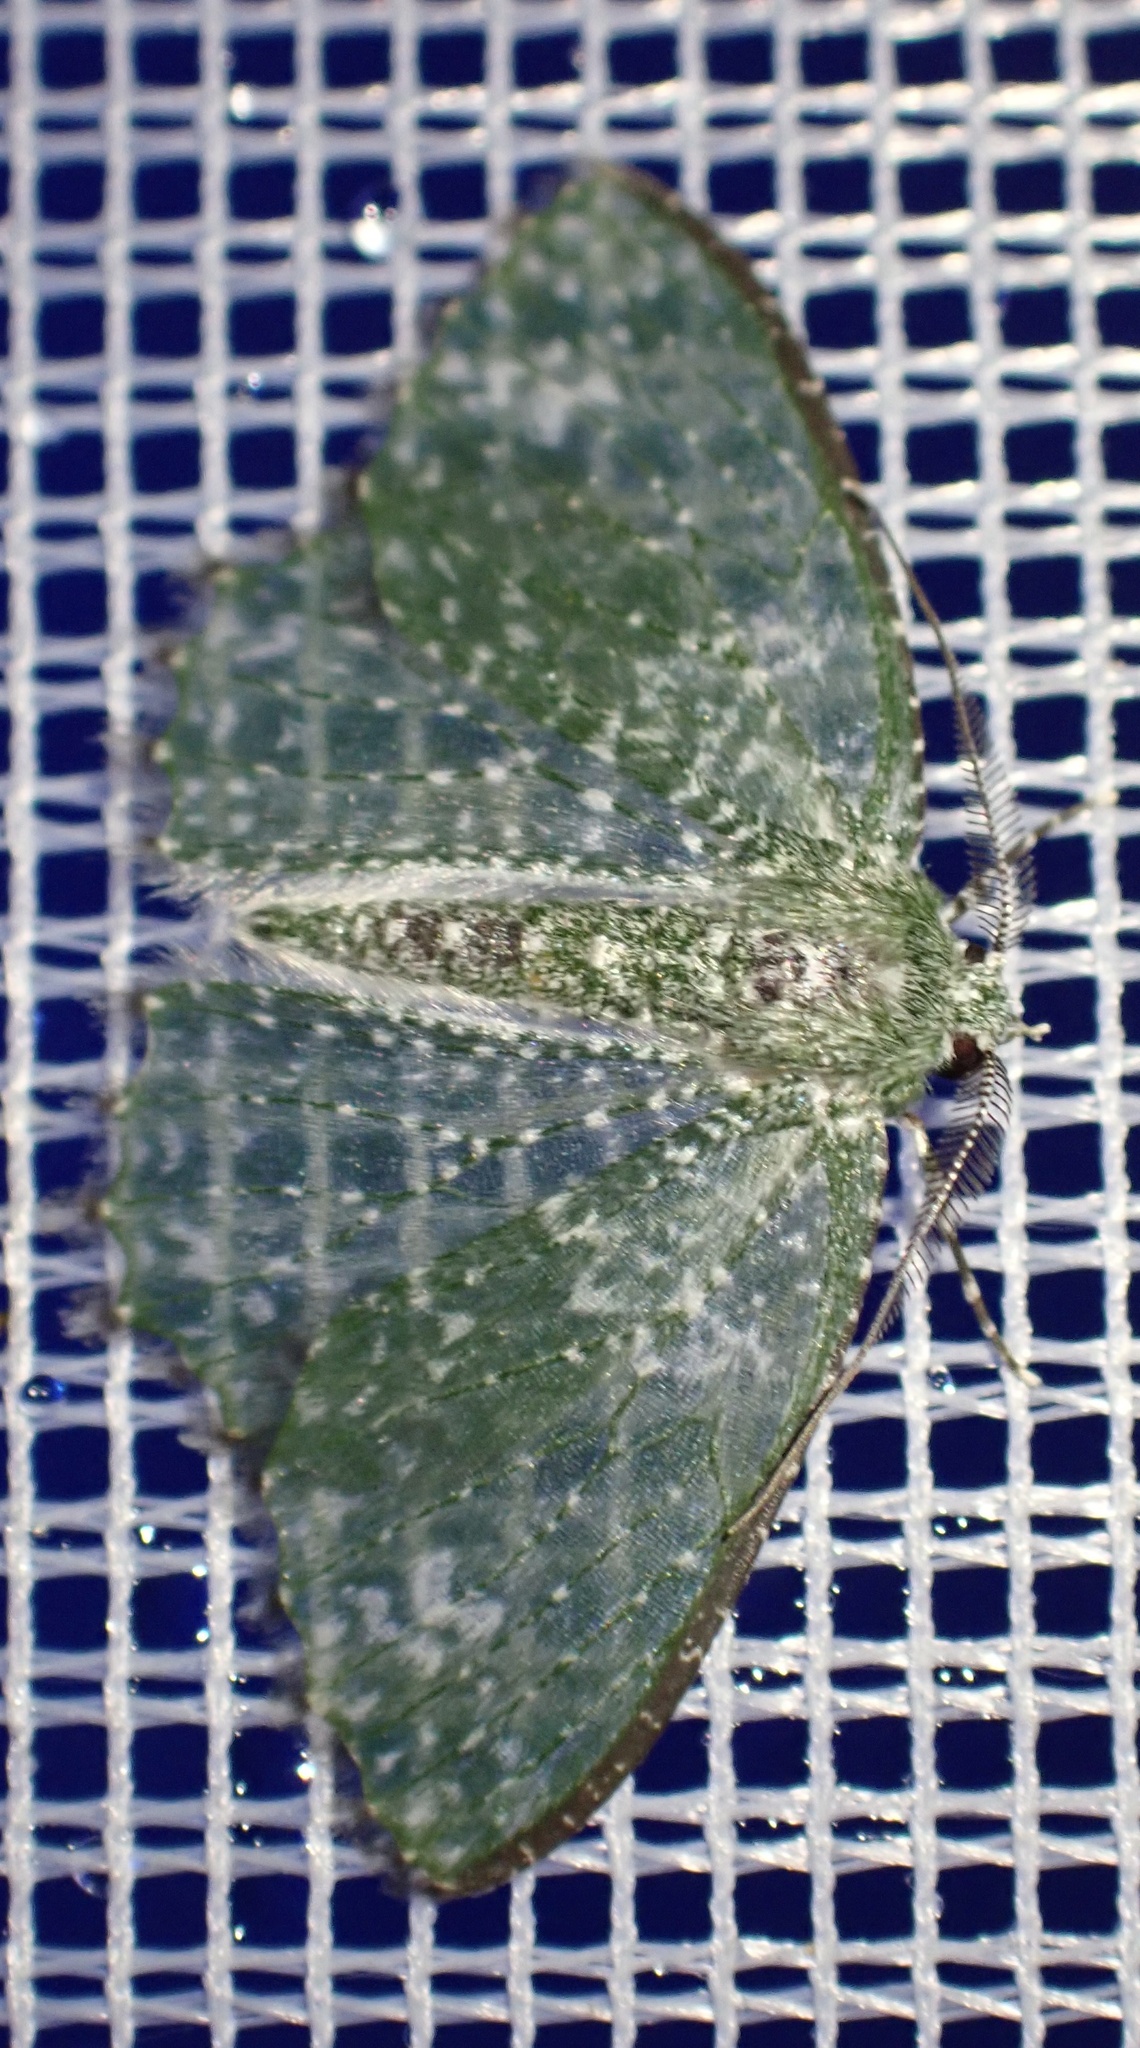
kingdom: Animalia
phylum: Arthropoda
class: Insecta
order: Lepidoptera
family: Geometridae
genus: Eucyclodes
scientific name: Eucyclodes iridescens
